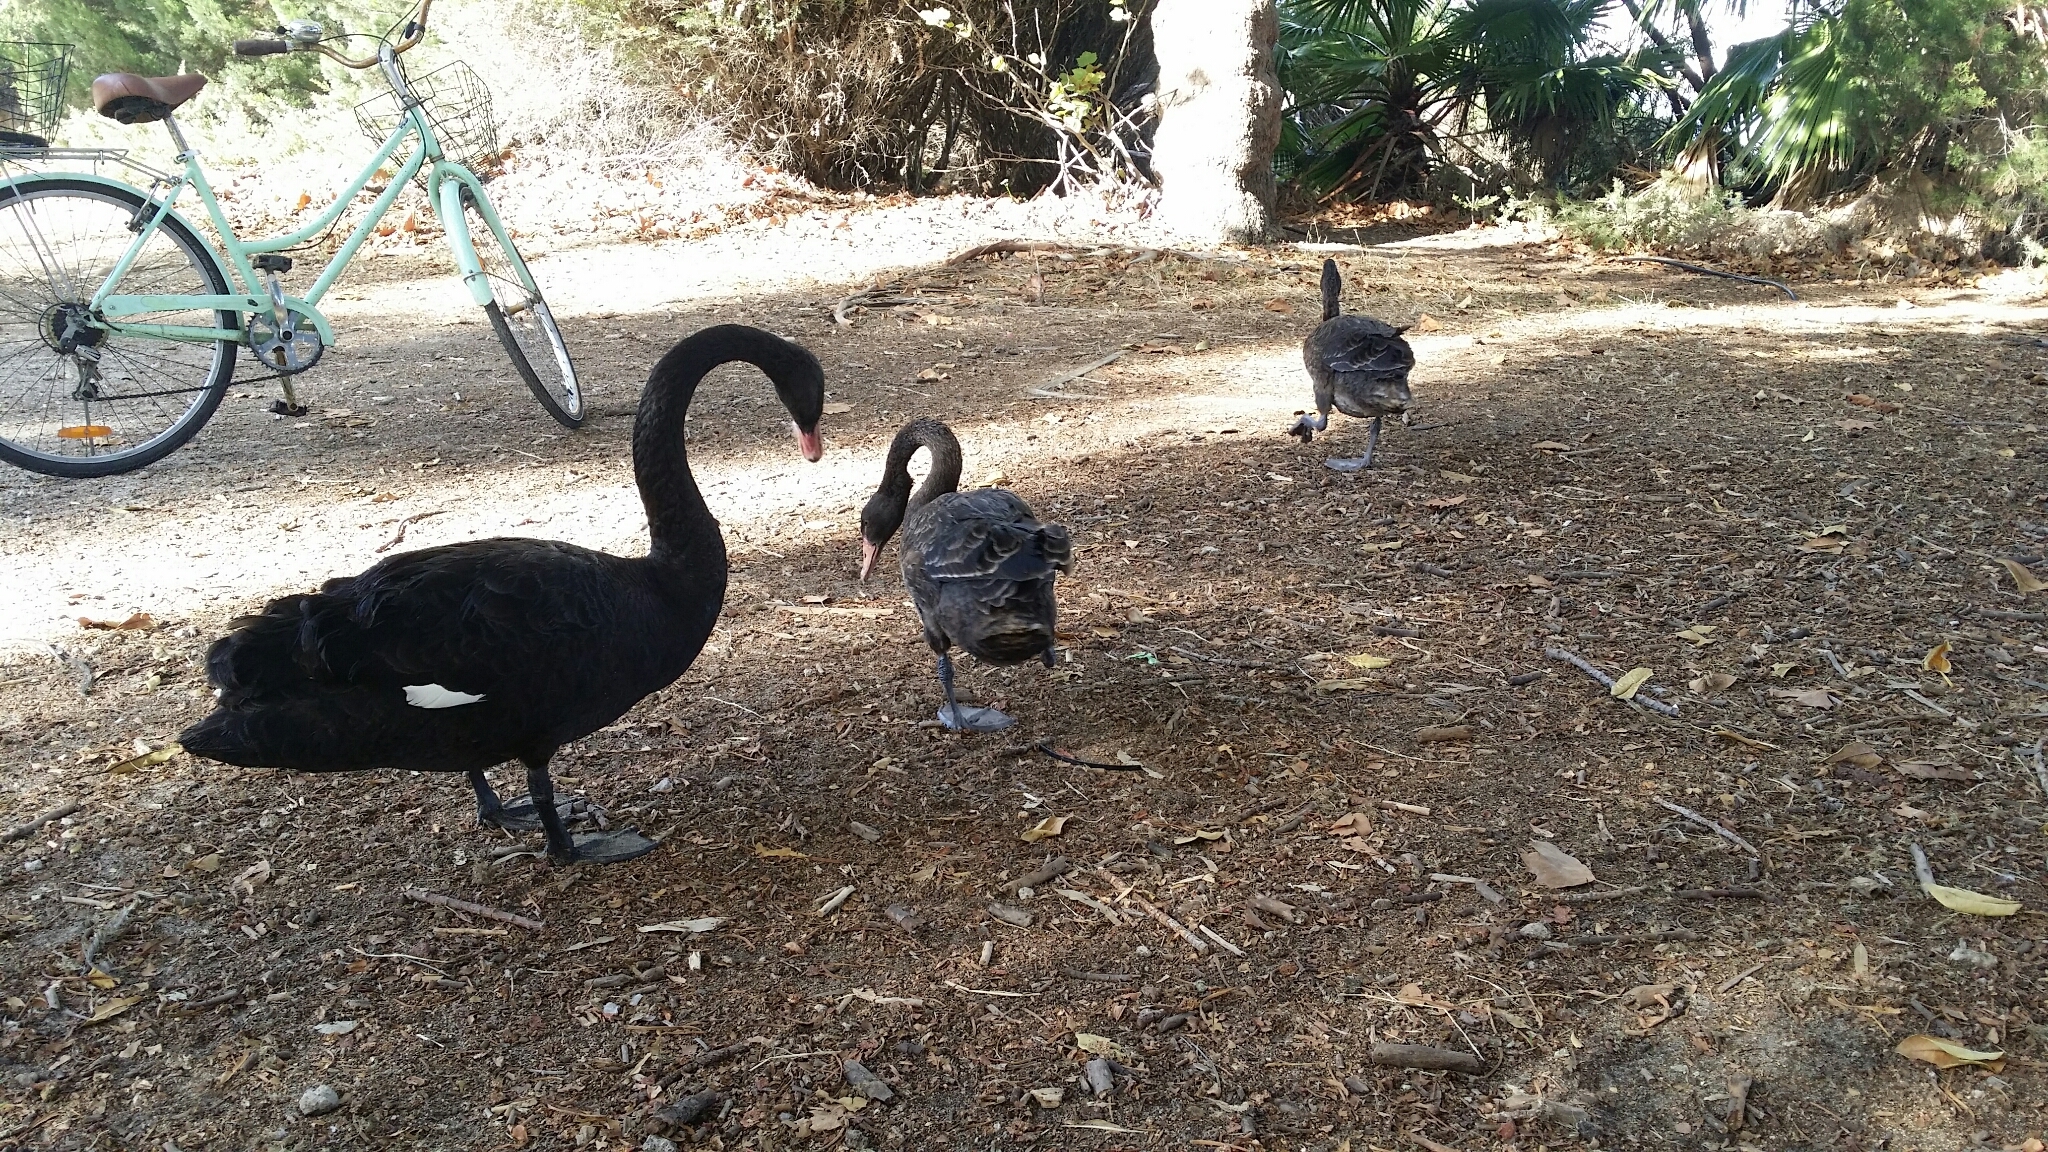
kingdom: Animalia
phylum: Chordata
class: Aves
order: Anseriformes
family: Anatidae
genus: Cygnus
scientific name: Cygnus atratus
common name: Black swan
